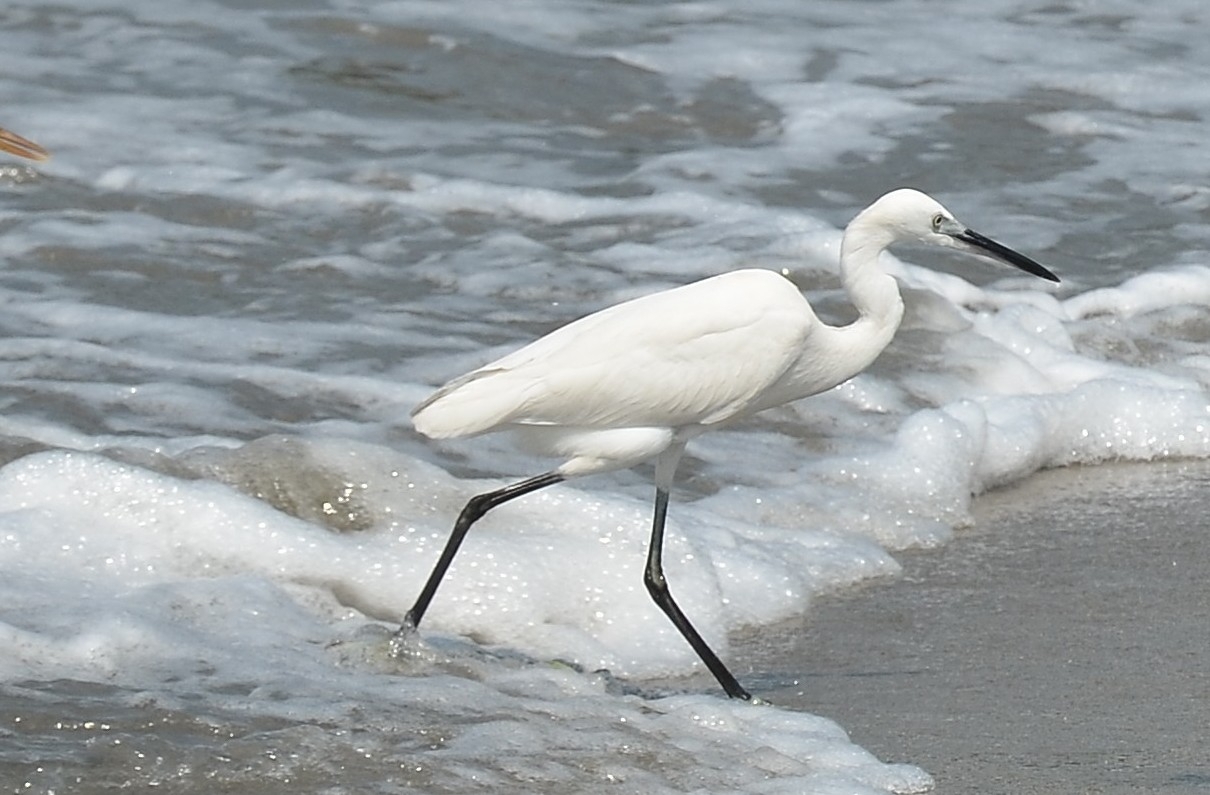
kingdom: Animalia
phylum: Chordata
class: Aves
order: Pelecaniformes
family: Ardeidae
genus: Egretta
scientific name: Egretta garzetta
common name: Little egret
